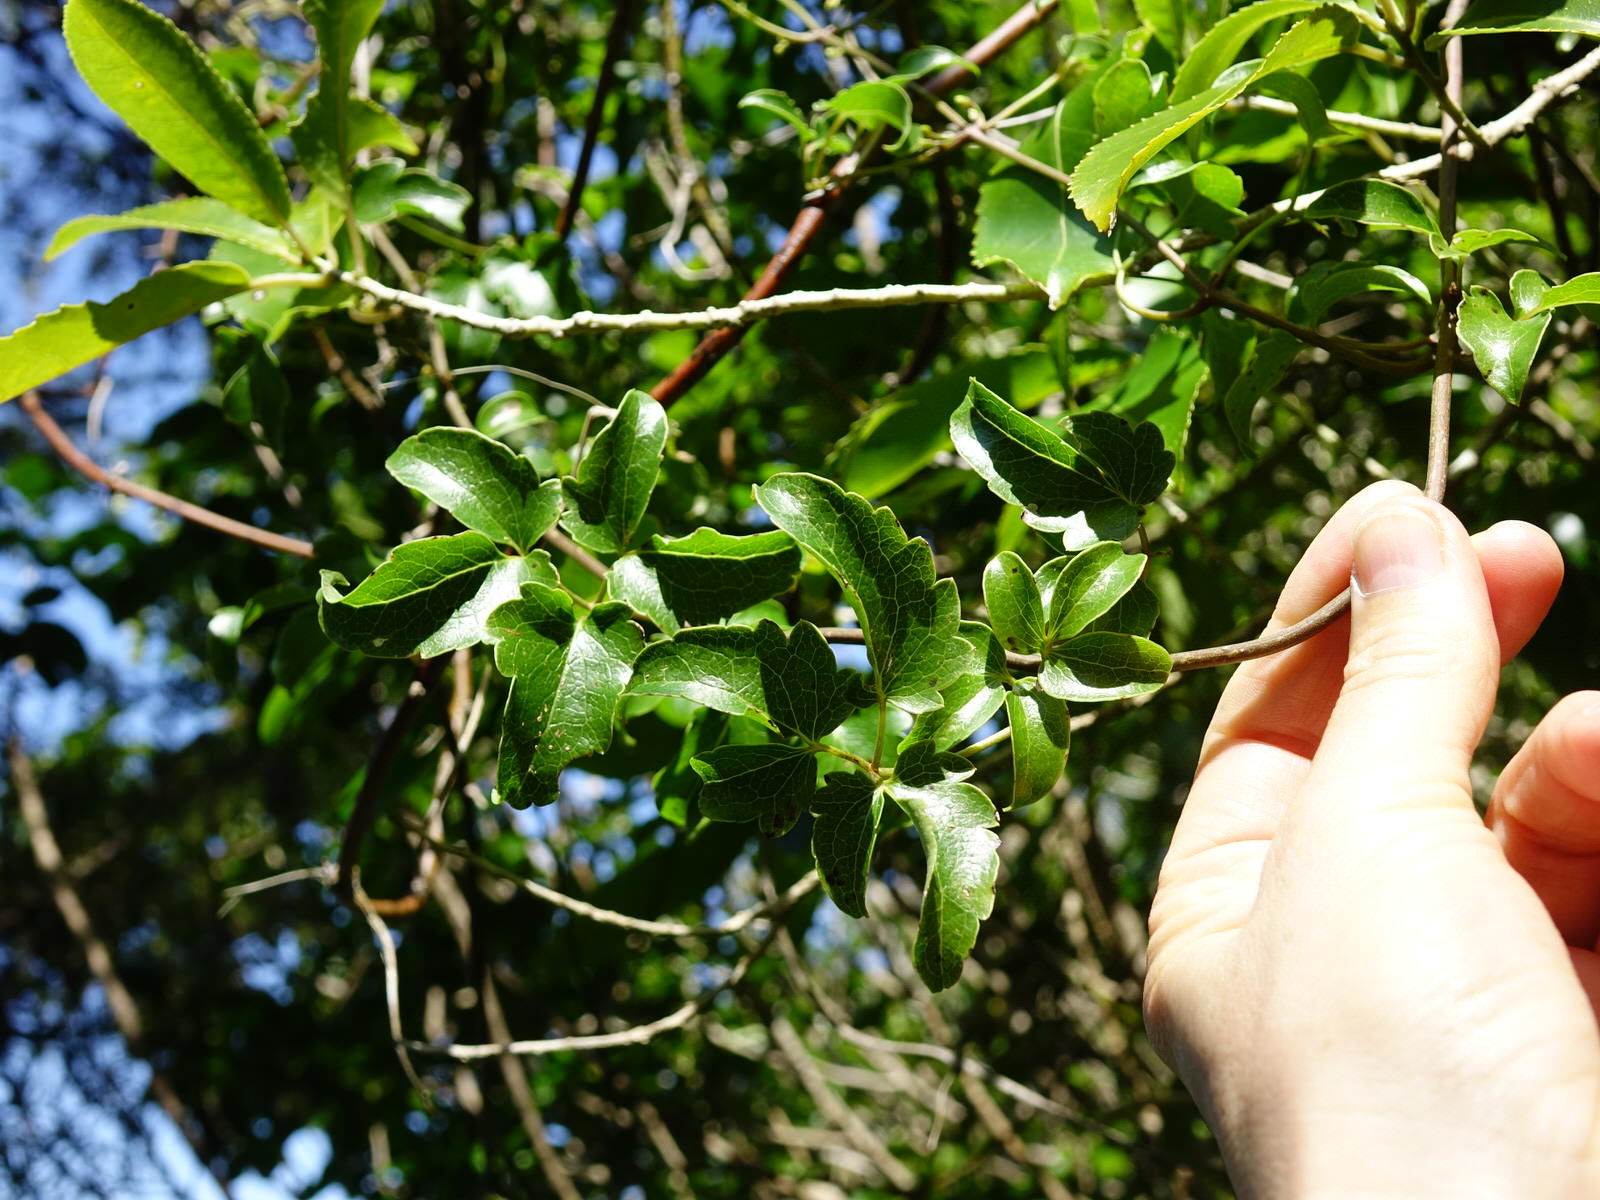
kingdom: Plantae
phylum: Tracheophyta
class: Magnoliopsida
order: Ranunculales
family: Ranunculaceae
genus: Clematis
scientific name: Clematis forsteri
